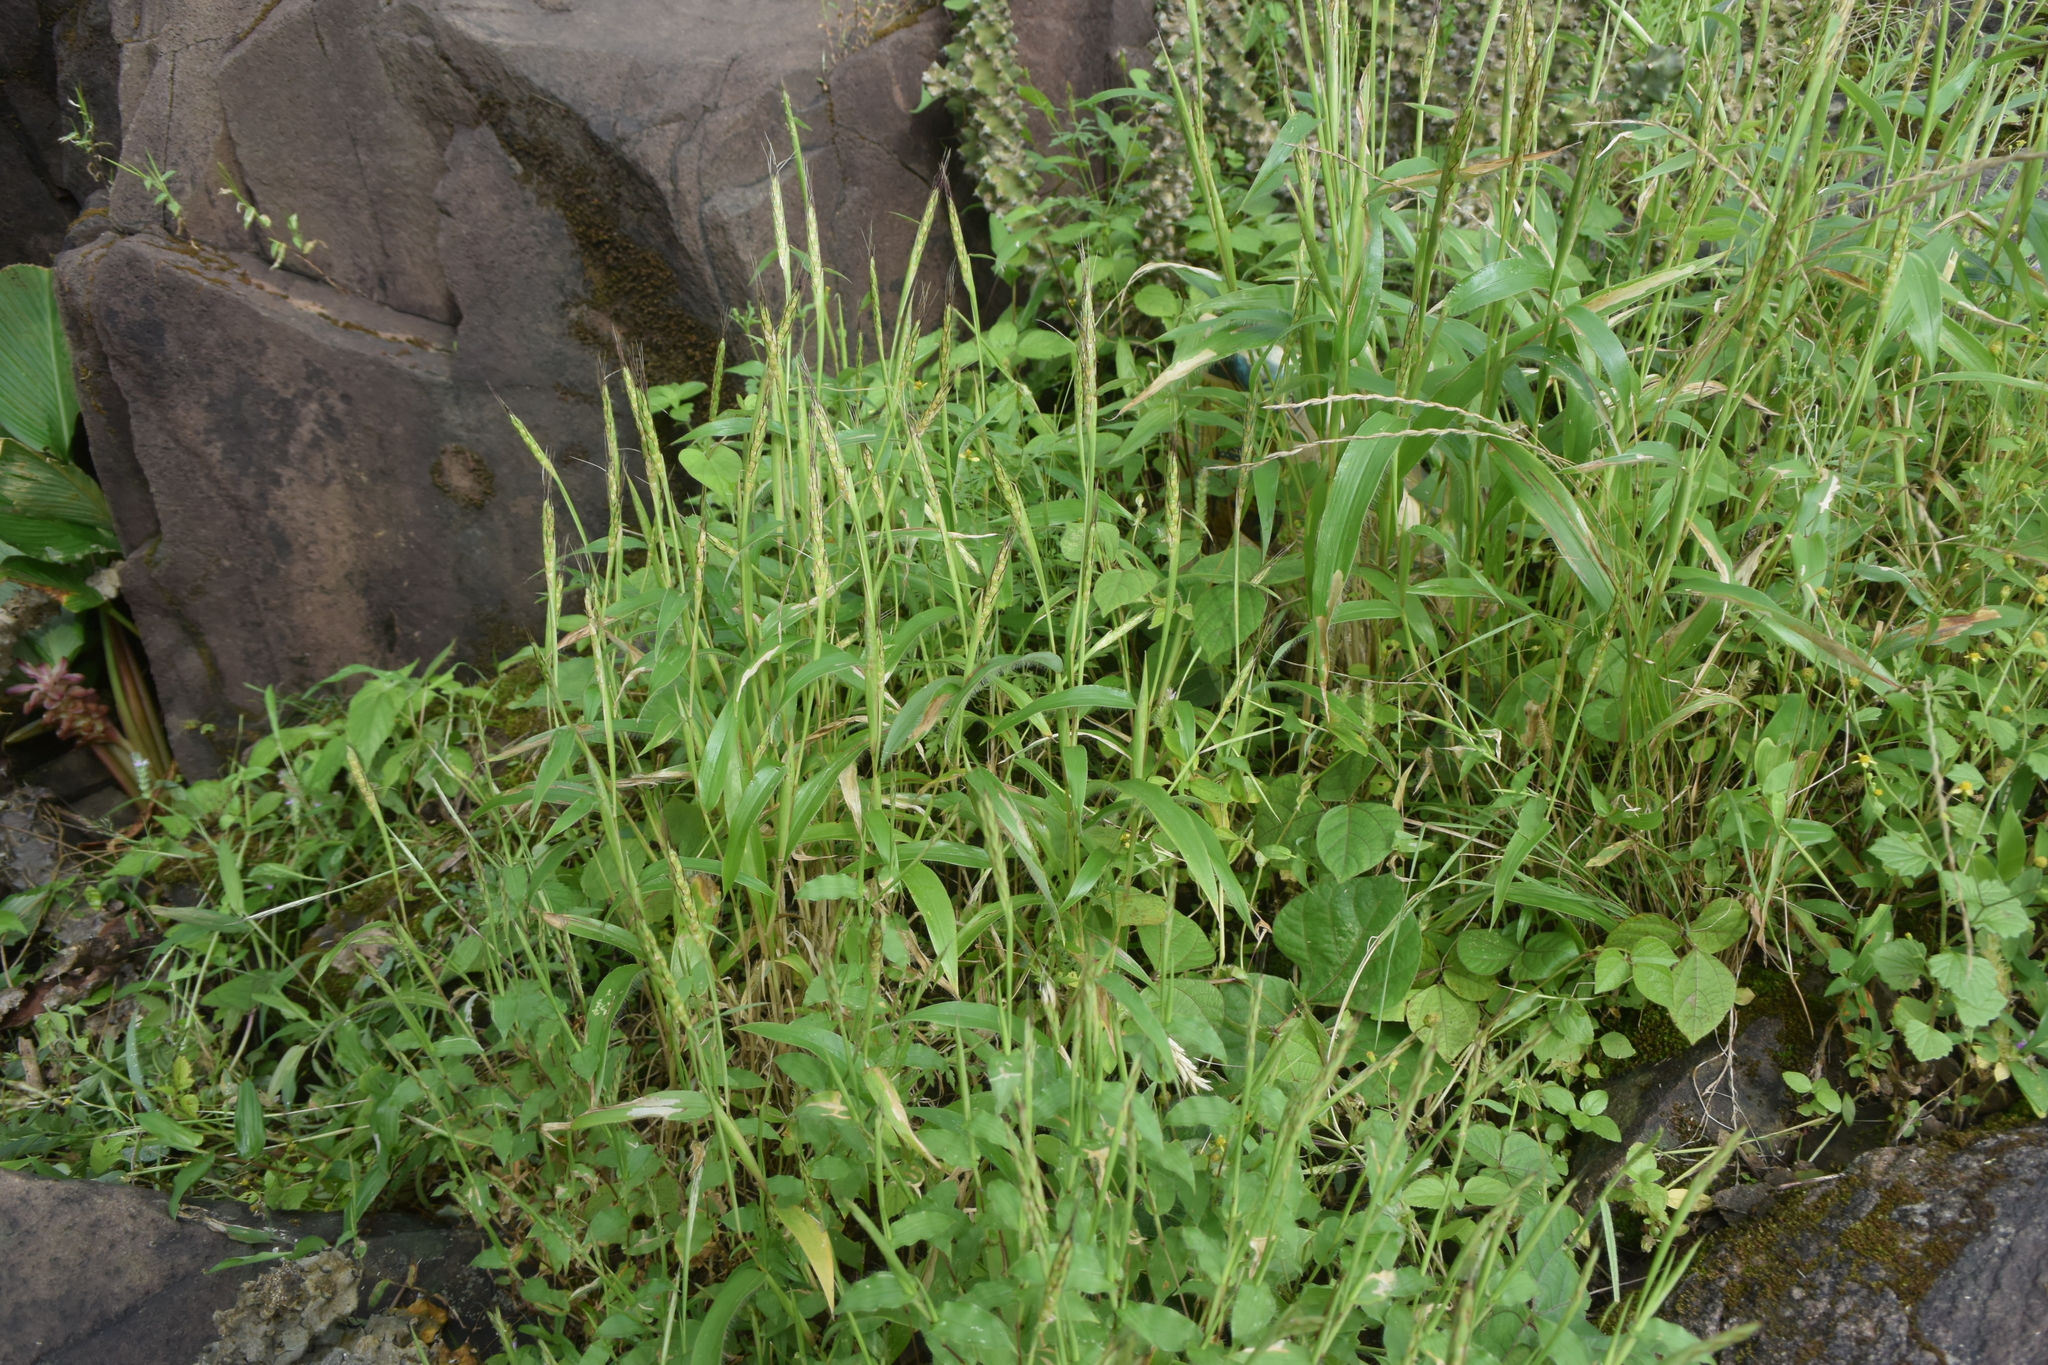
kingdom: Plantae
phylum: Tracheophyta
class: Liliopsida
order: Poales
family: Poaceae
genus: Ischaemum
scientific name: Ischaemum impressum
